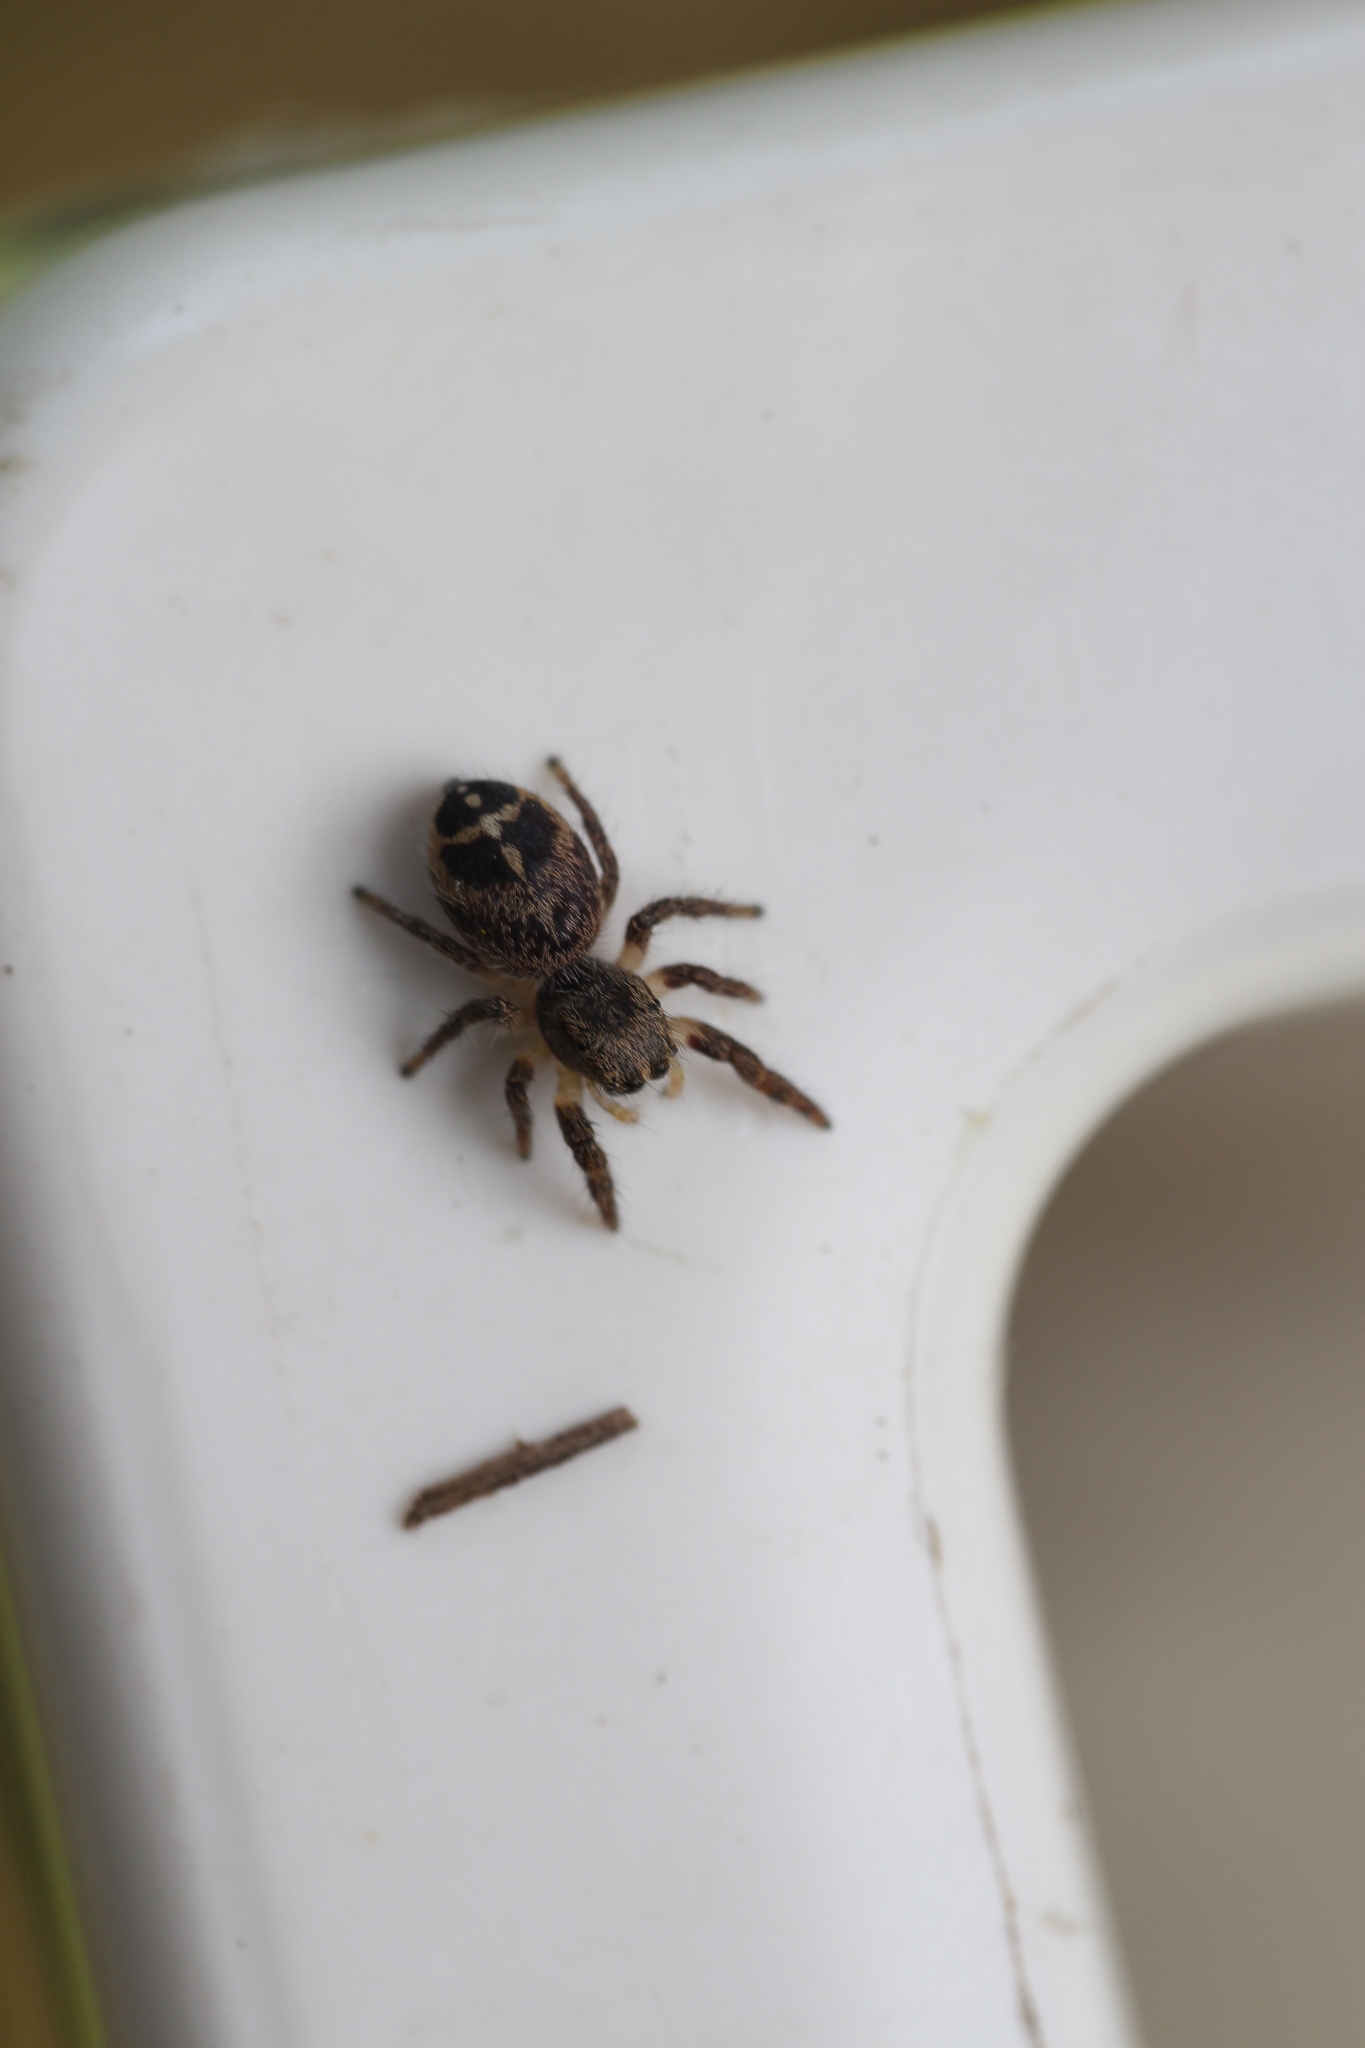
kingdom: Animalia
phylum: Arthropoda
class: Arachnida
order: Araneae
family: Salticidae
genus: Pellenes
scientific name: Pellenes tripunctatus
